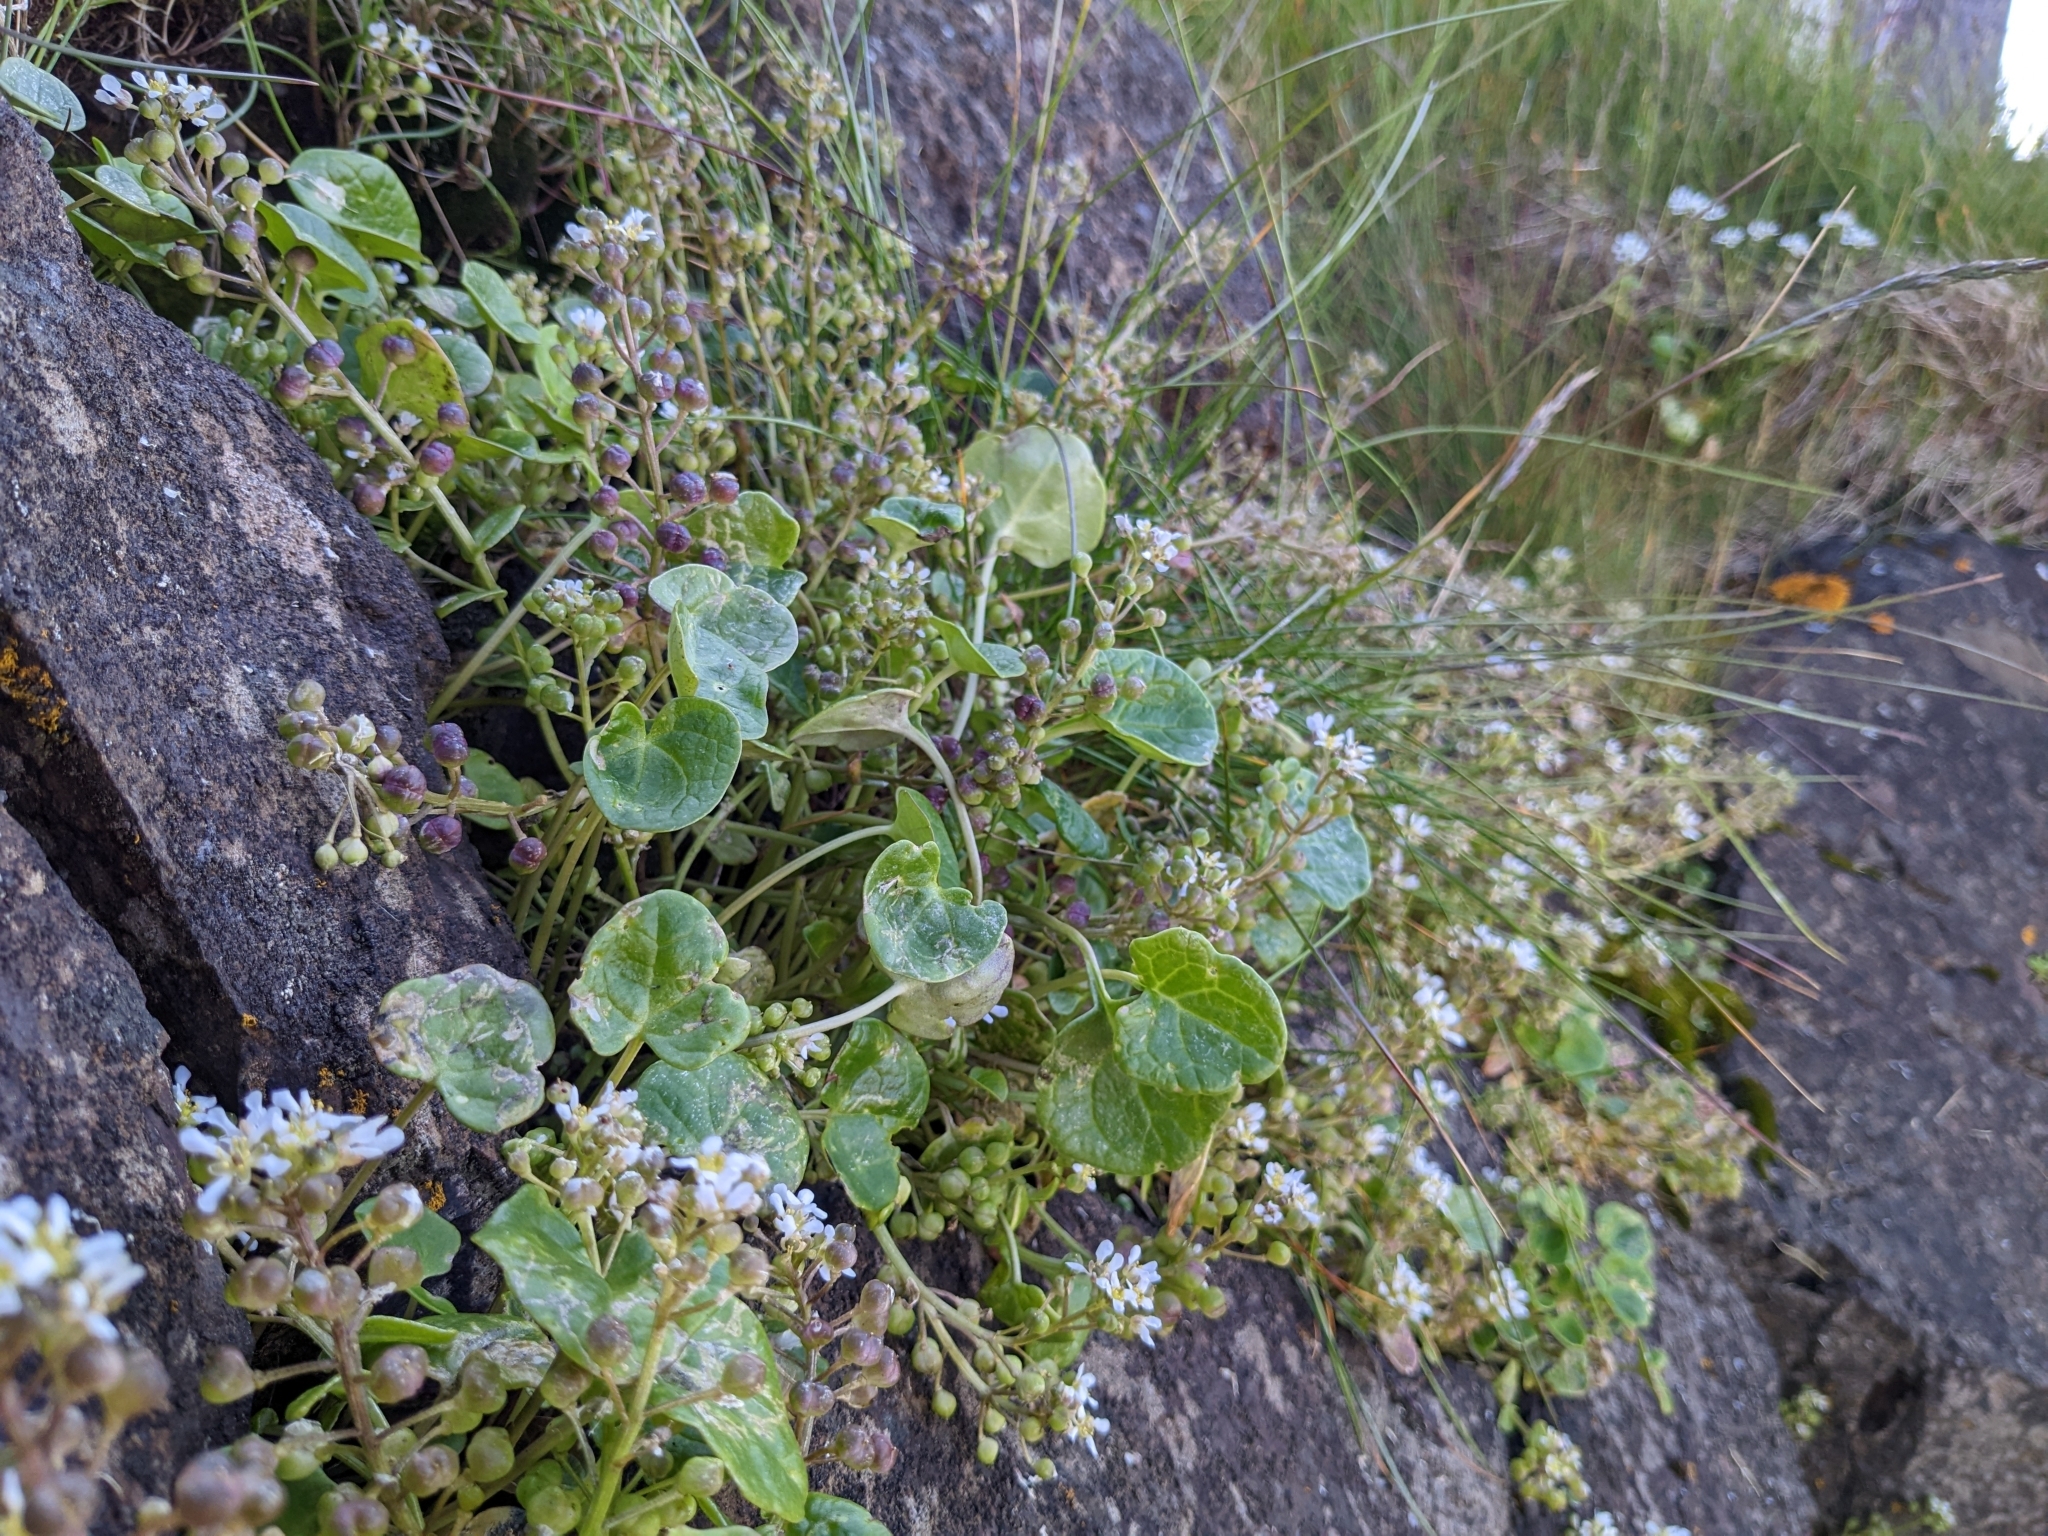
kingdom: Plantae
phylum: Tracheophyta
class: Magnoliopsida
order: Brassicales
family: Brassicaceae
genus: Cochlearia
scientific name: Cochlearia officinalis
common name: Scurvy-grass
